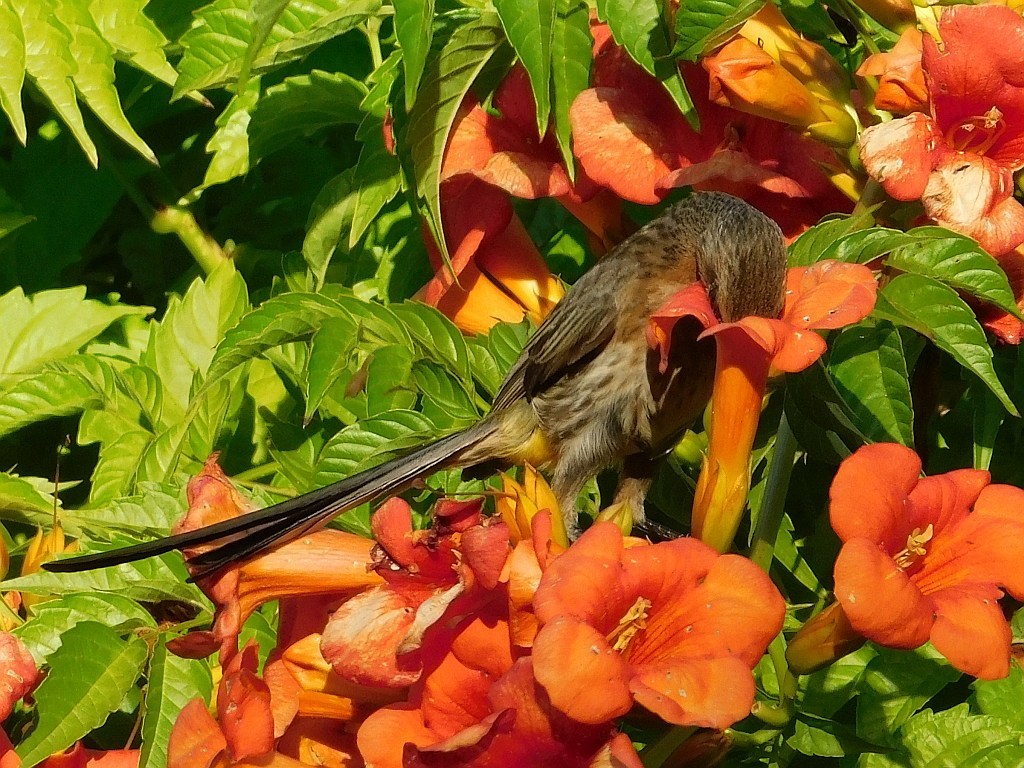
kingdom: Animalia
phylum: Chordata
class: Aves
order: Passeriformes
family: Promeropidae
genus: Promerops
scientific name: Promerops cafer
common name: Cape sugarbird
